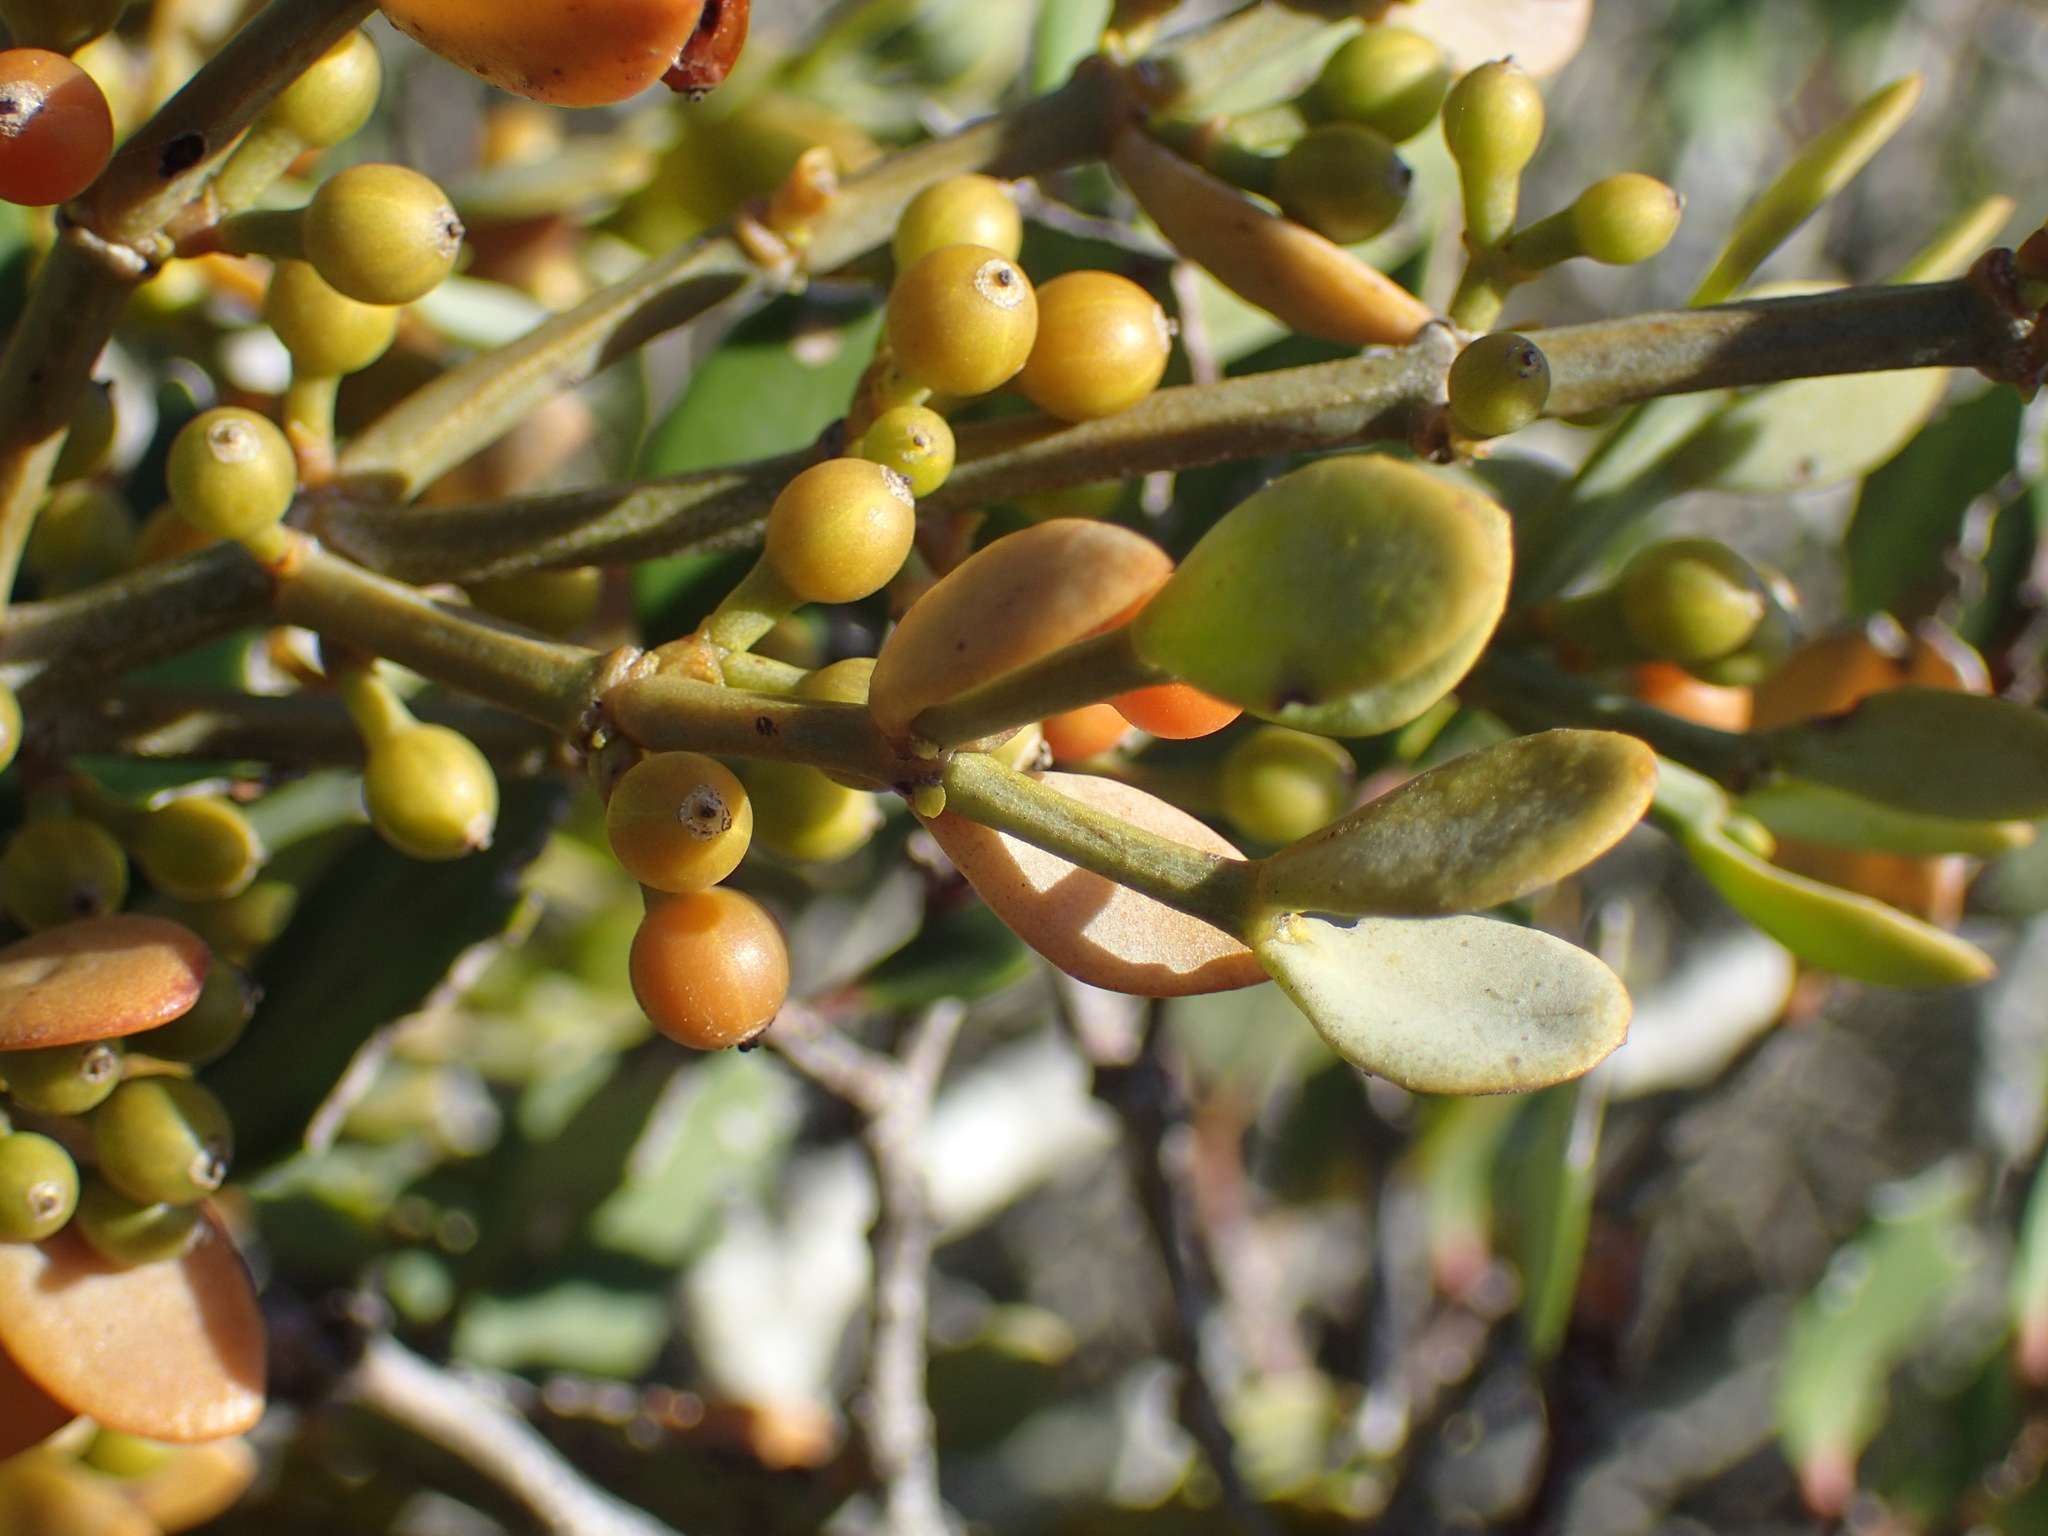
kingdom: Plantae
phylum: Tracheophyta
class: Magnoliopsida
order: Santalales
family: Viscaceae
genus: Viscum
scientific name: Viscum rotundifolium
